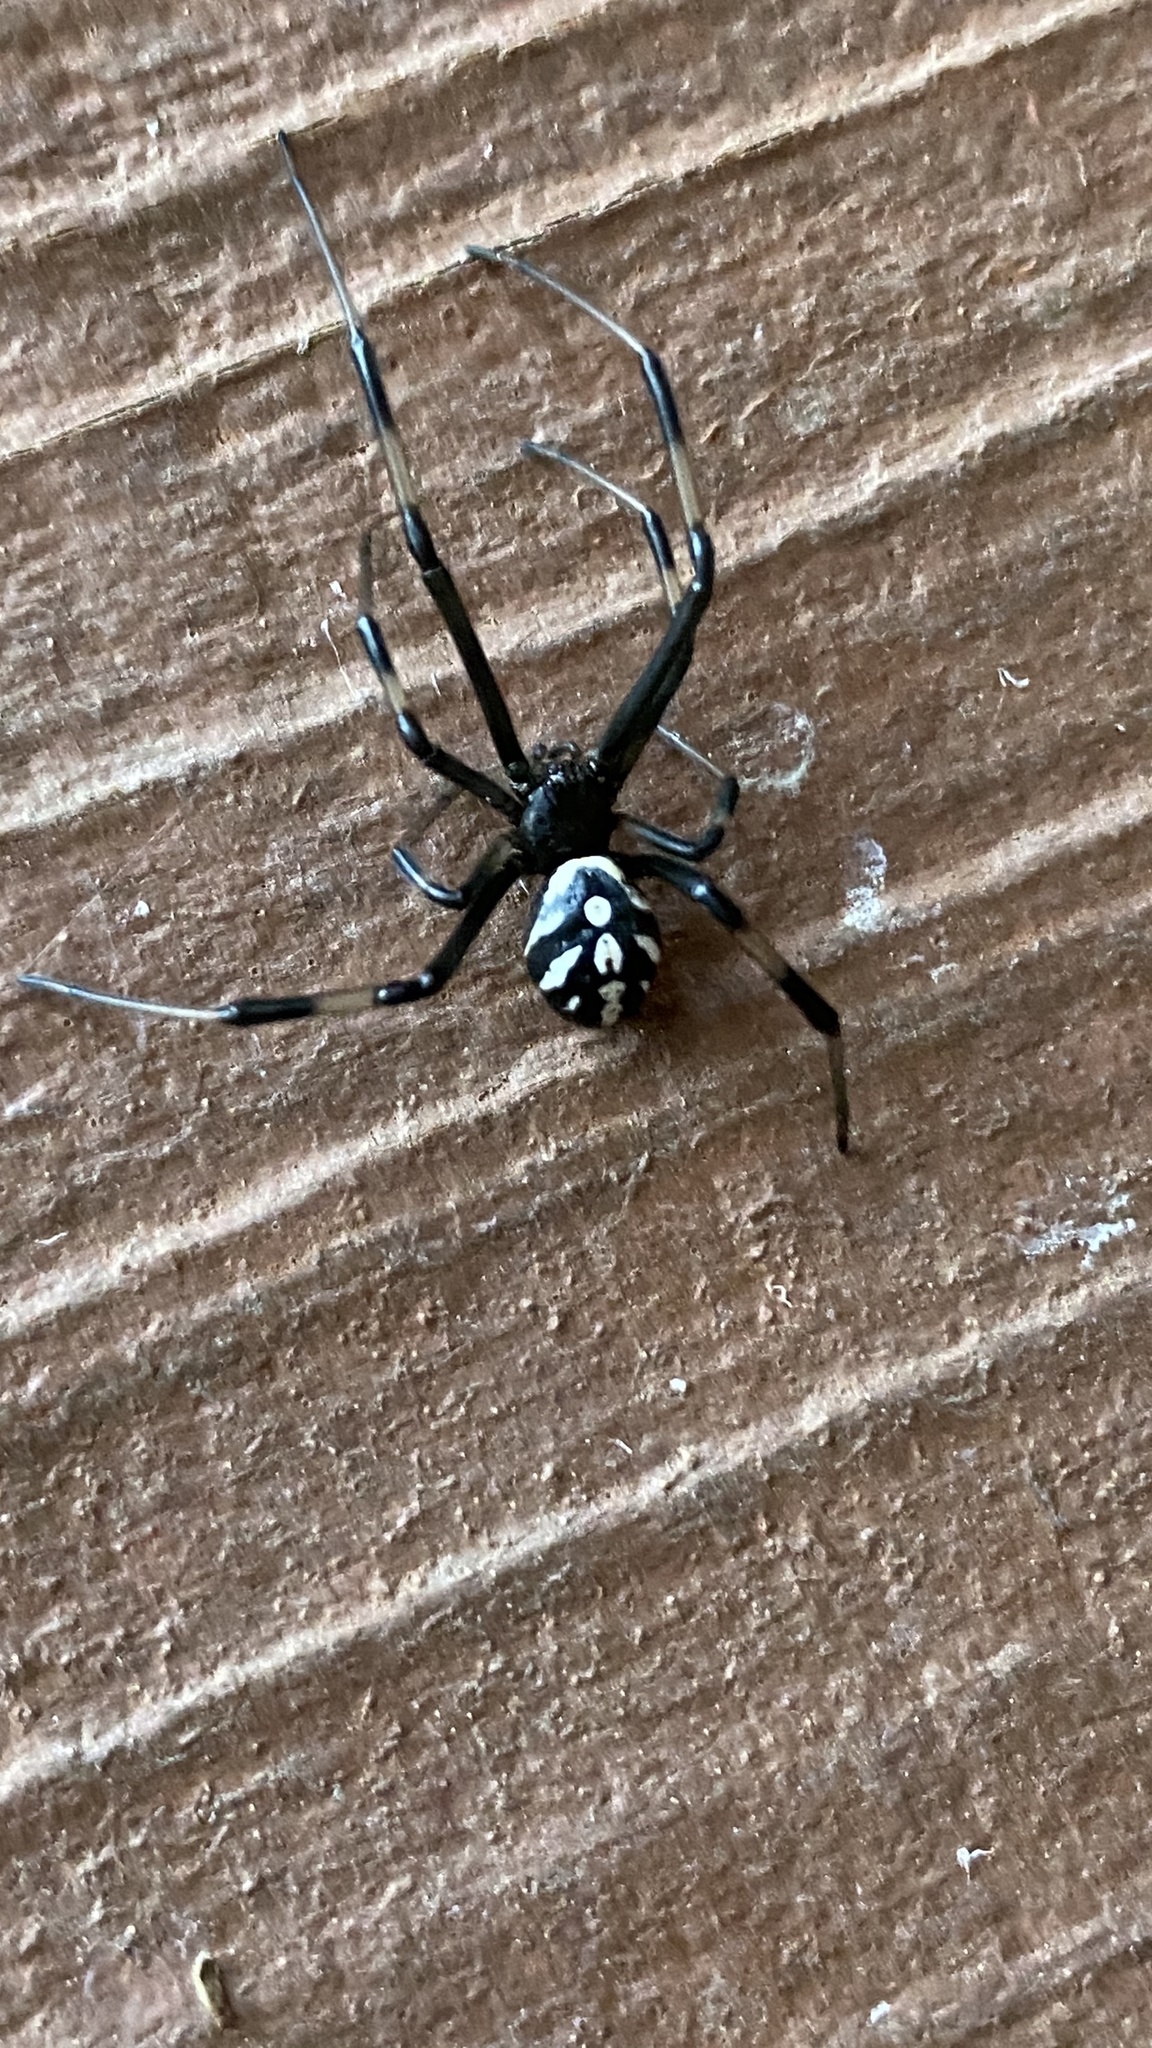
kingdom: Animalia
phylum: Arthropoda
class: Arachnida
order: Araneae
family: Theridiidae
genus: Latrodectus
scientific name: Latrodectus hesperus
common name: Western black widow
